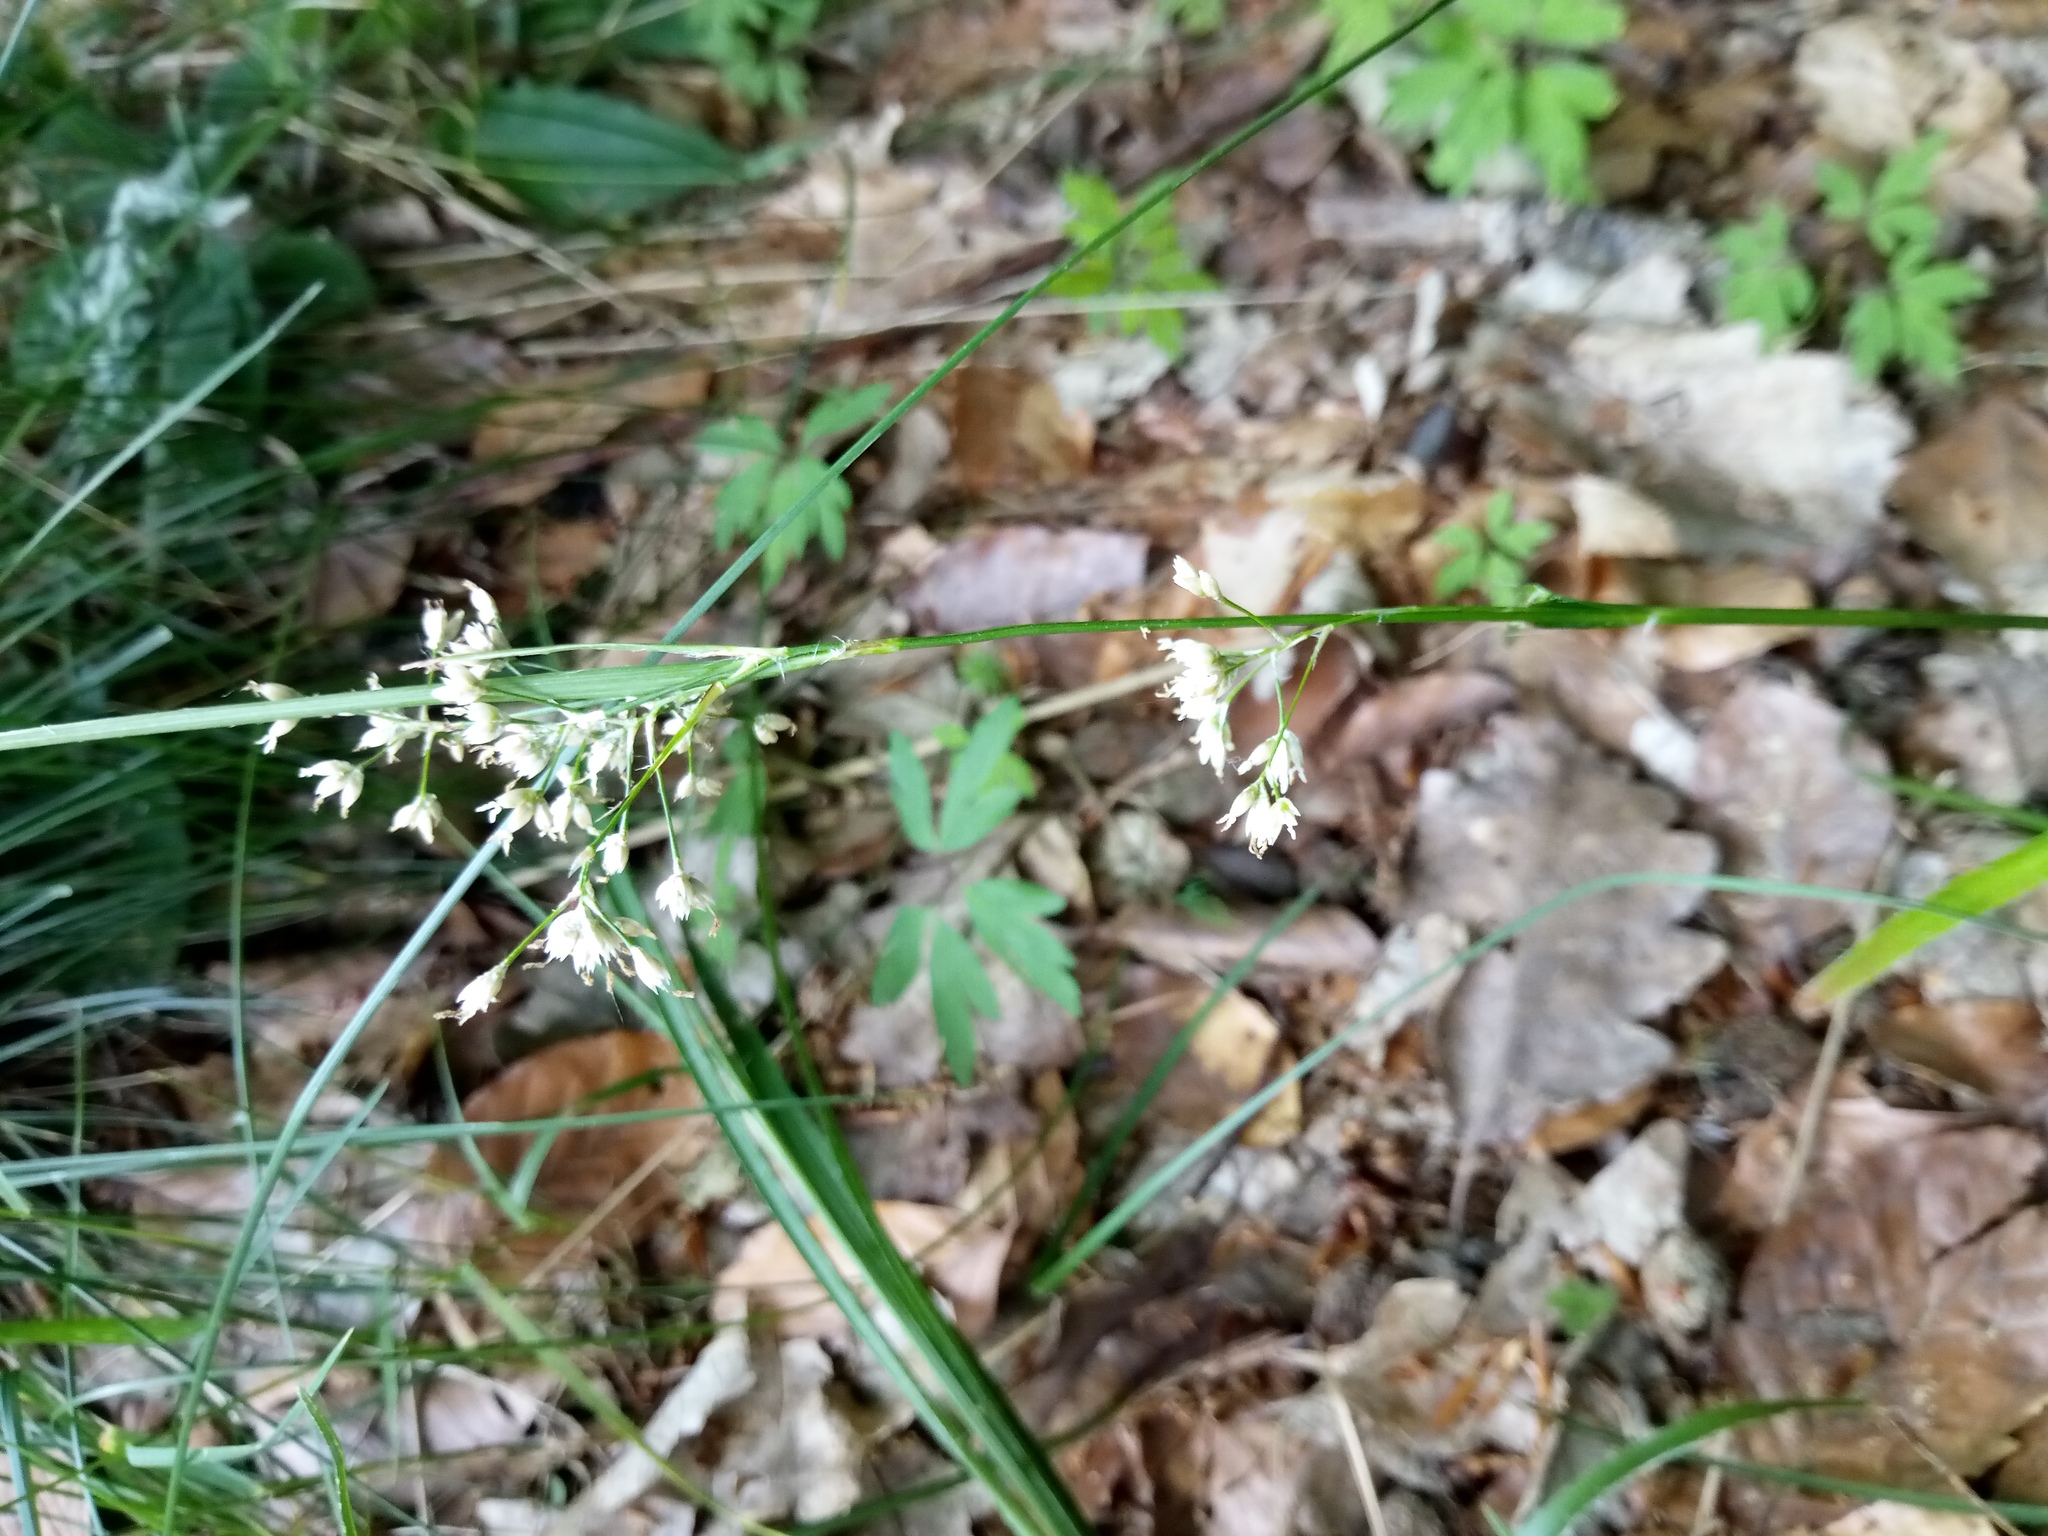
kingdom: Plantae
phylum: Tracheophyta
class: Liliopsida
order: Poales
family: Juncaceae
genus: Luzula
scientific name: Luzula luzuloides
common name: White wood-rush
